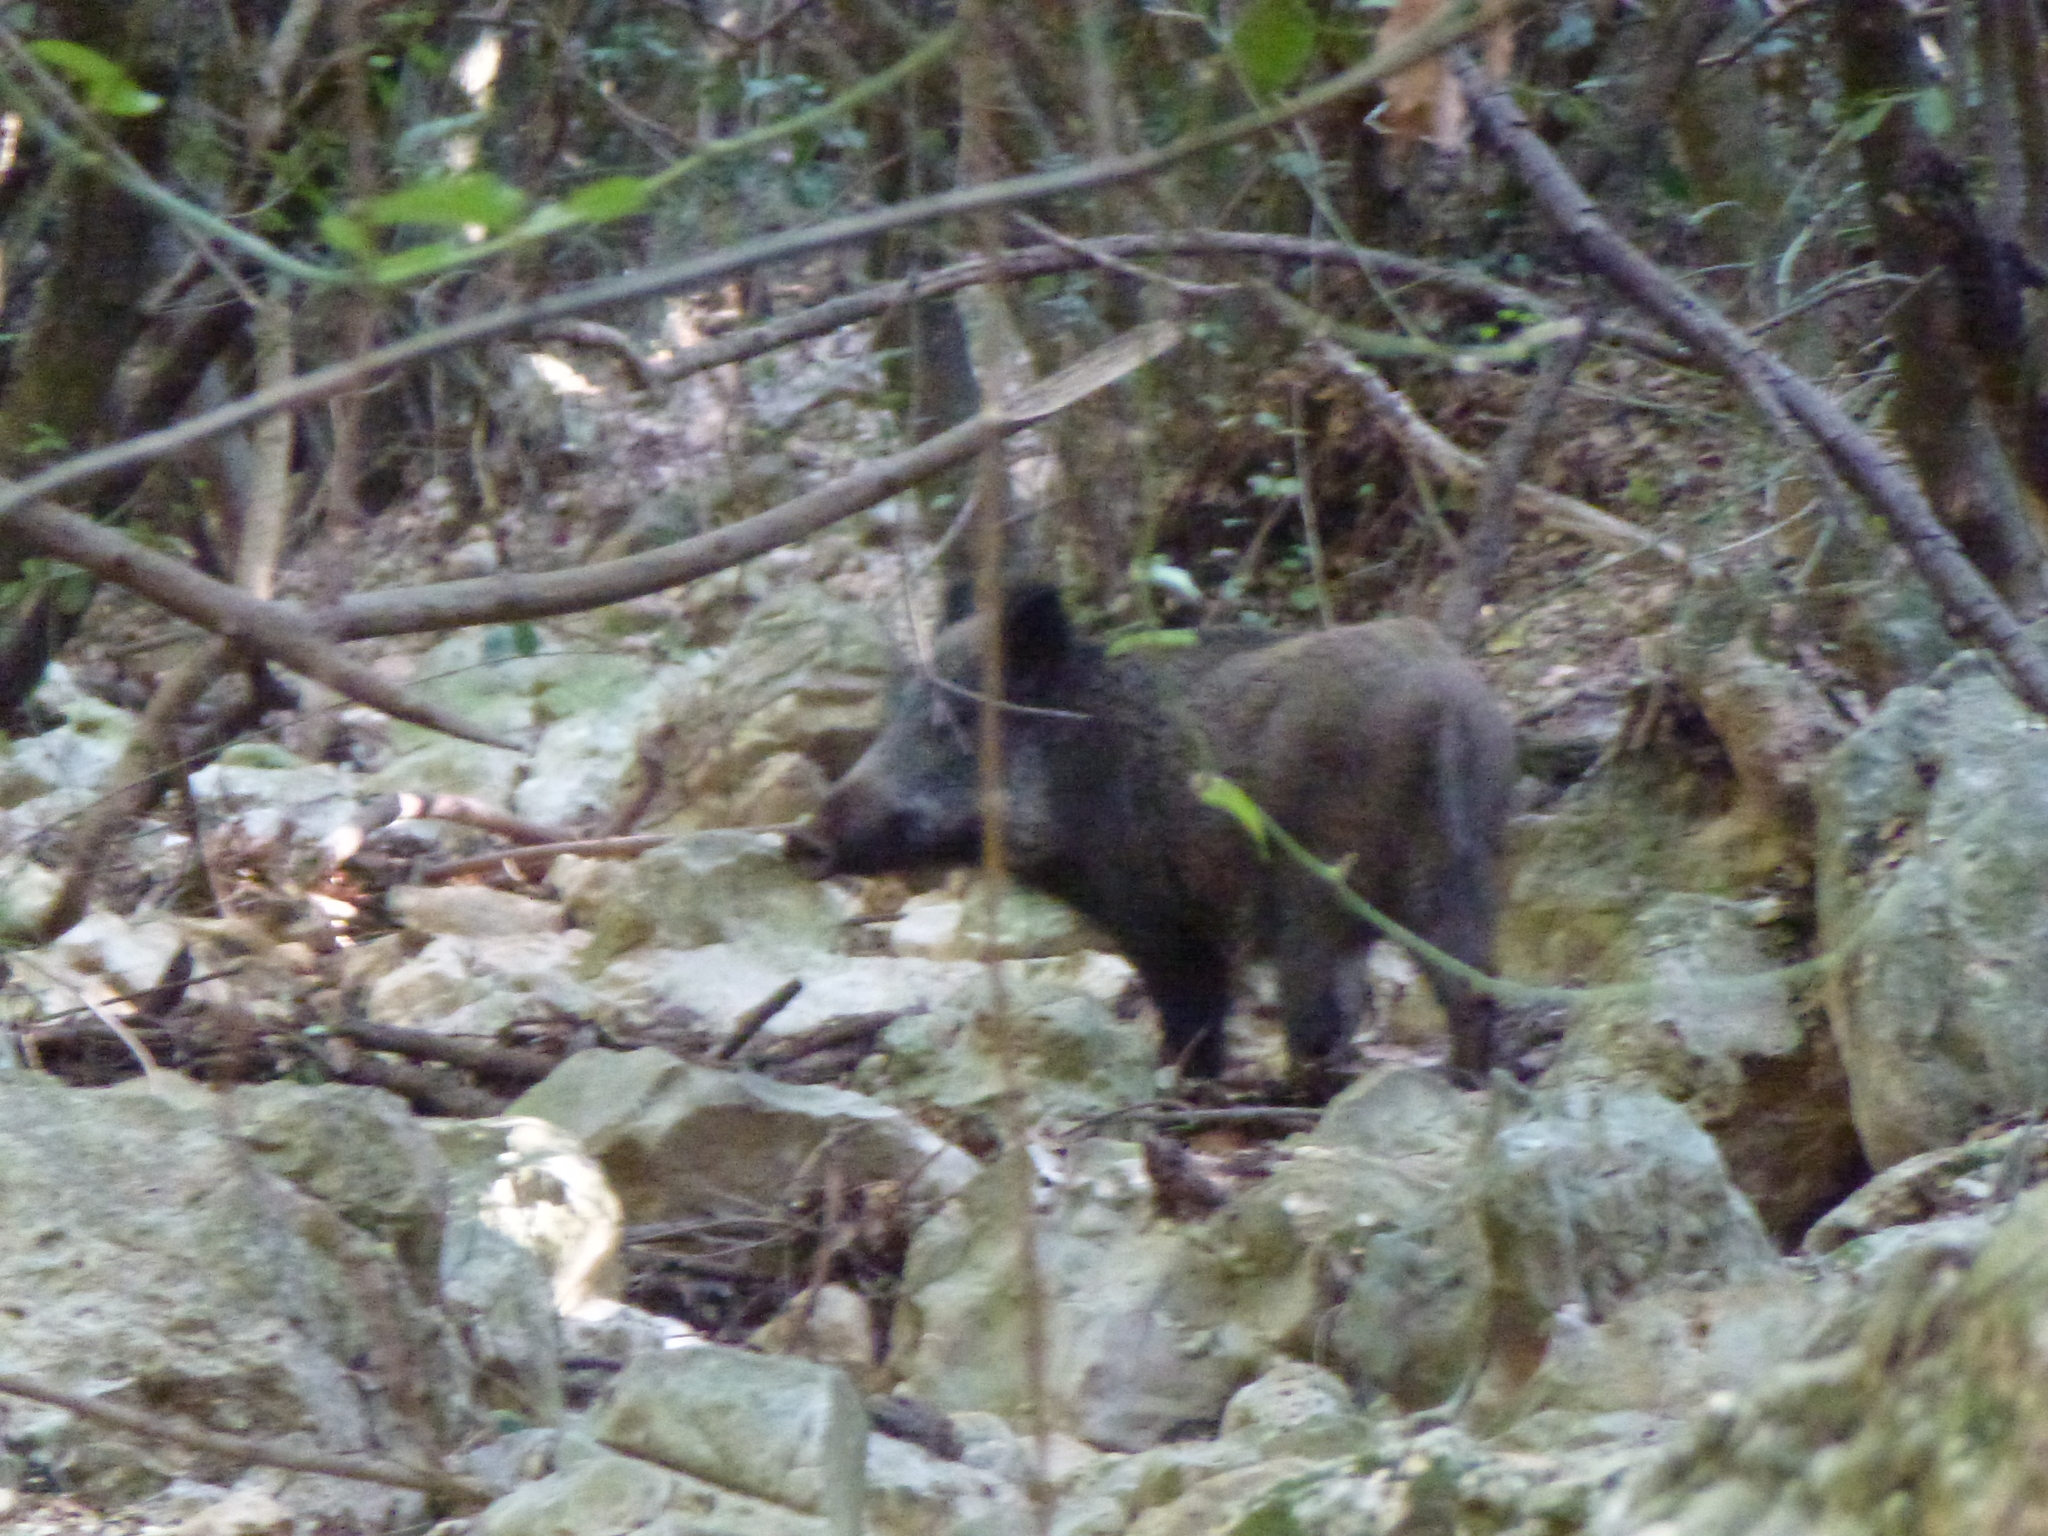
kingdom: Animalia
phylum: Chordata
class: Mammalia
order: Artiodactyla
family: Suidae
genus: Sus
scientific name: Sus scrofa
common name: Wild boar
